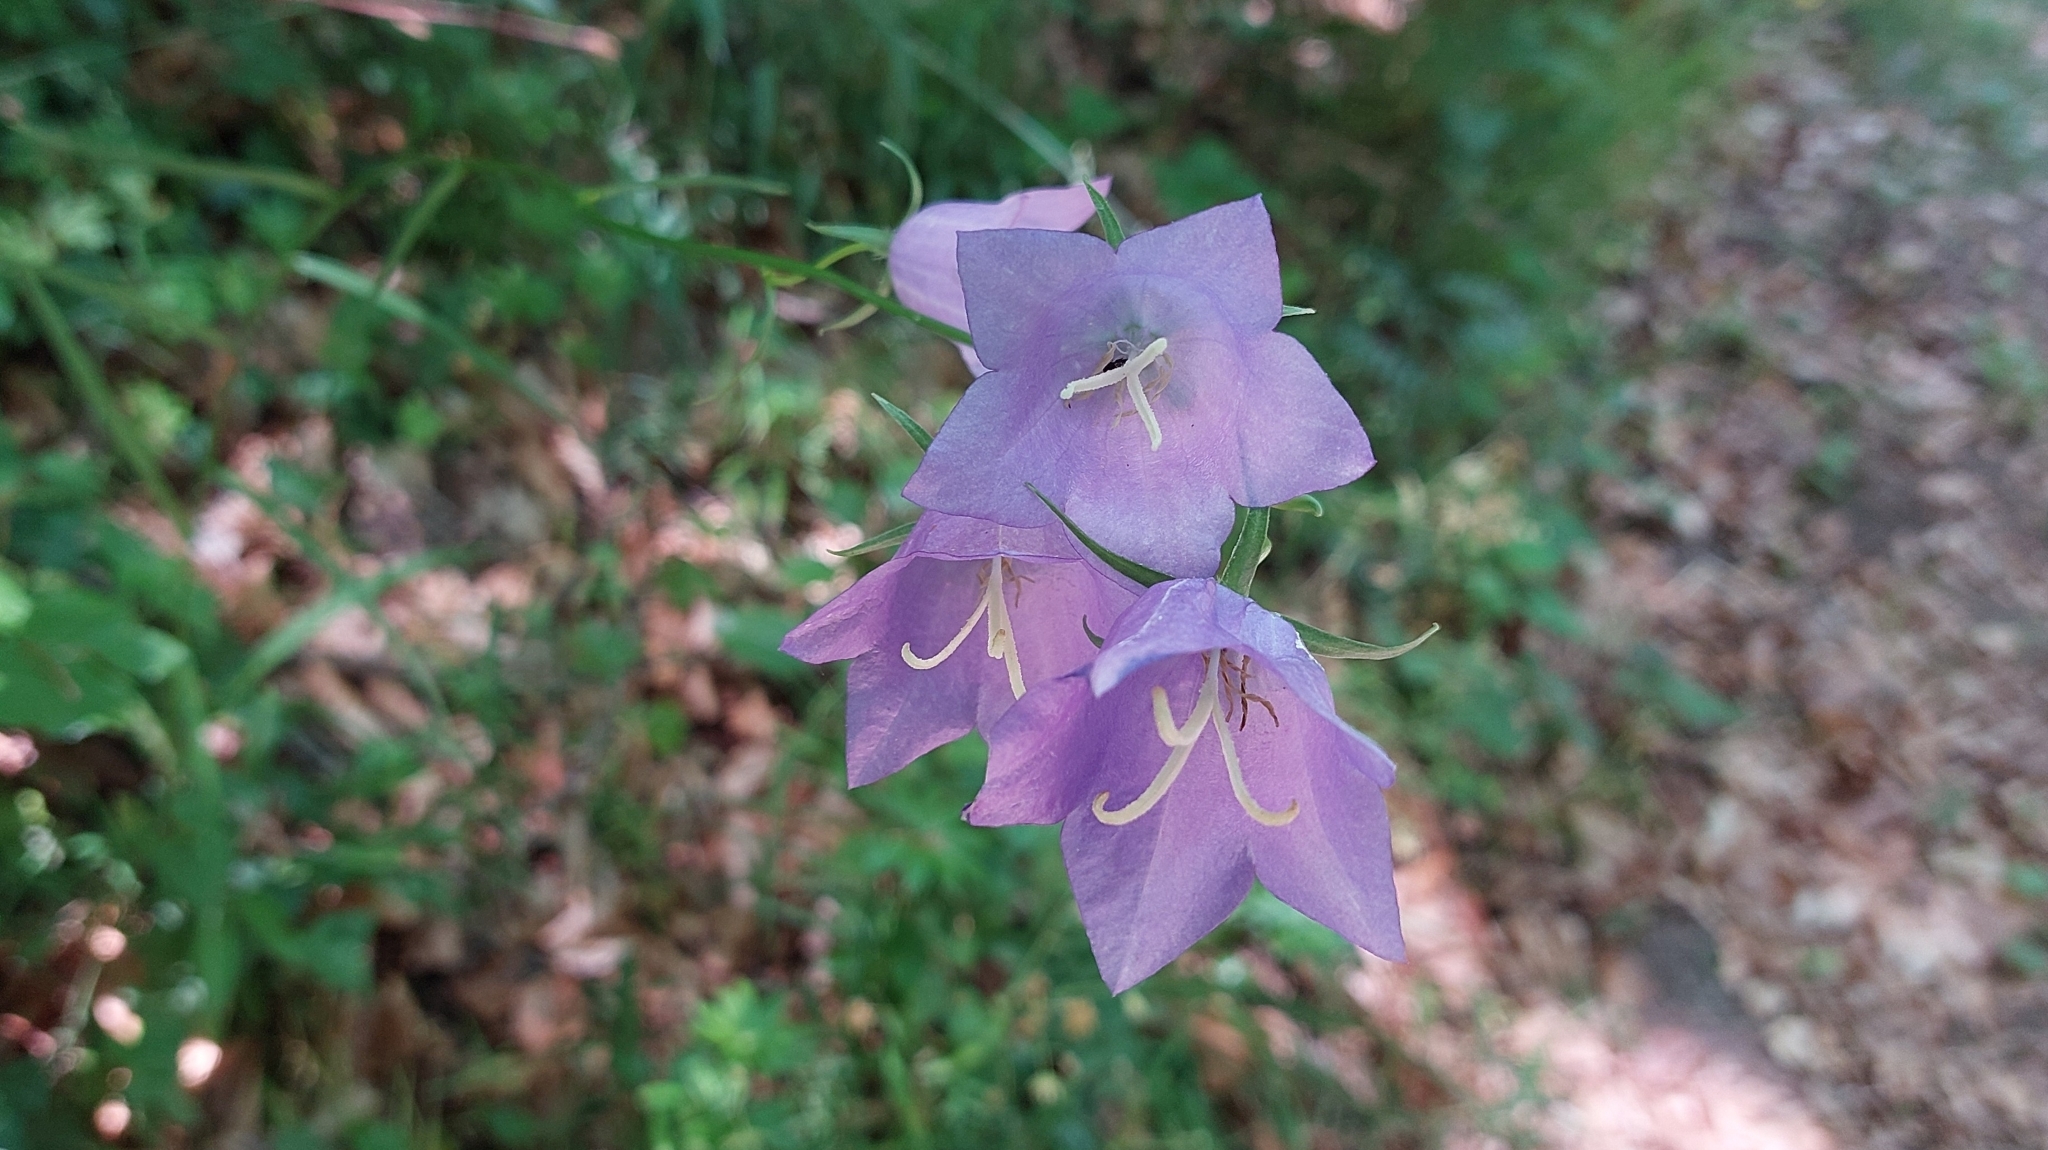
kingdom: Plantae
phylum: Tracheophyta
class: Magnoliopsida
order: Asterales
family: Campanulaceae
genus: Campanula
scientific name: Campanula persicifolia
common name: Peach-leaved bellflower
